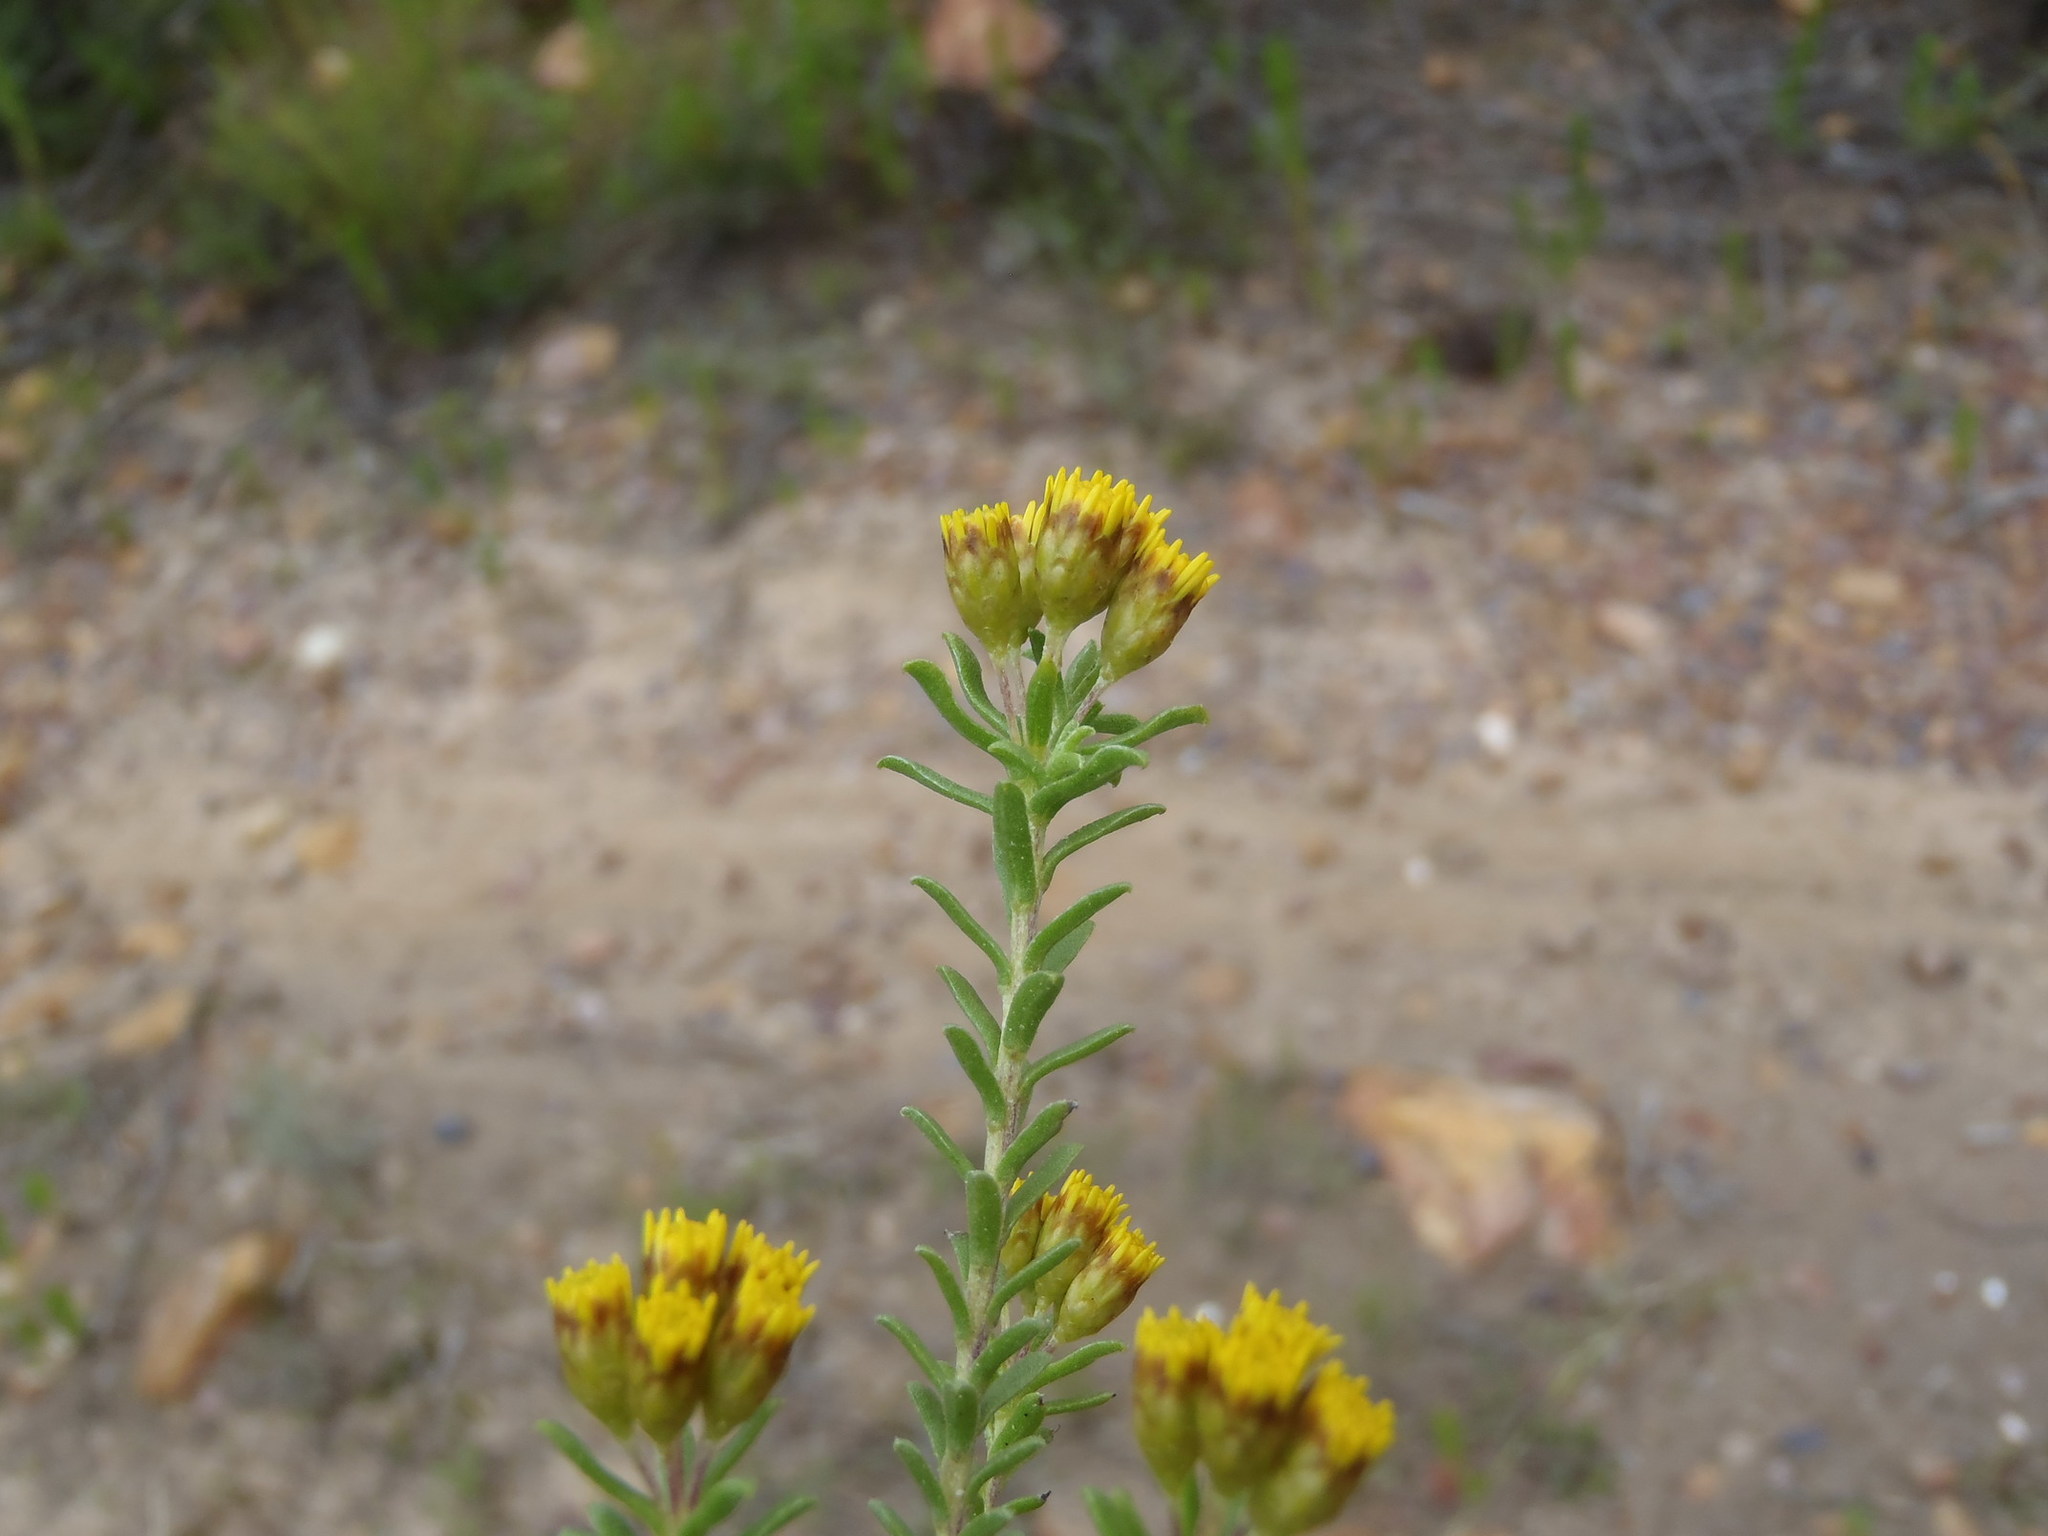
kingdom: Plantae
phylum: Tracheophyta
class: Magnoliopsida
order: Asterales
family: Asteraceae
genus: Oedera
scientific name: Oedera genistifolia
